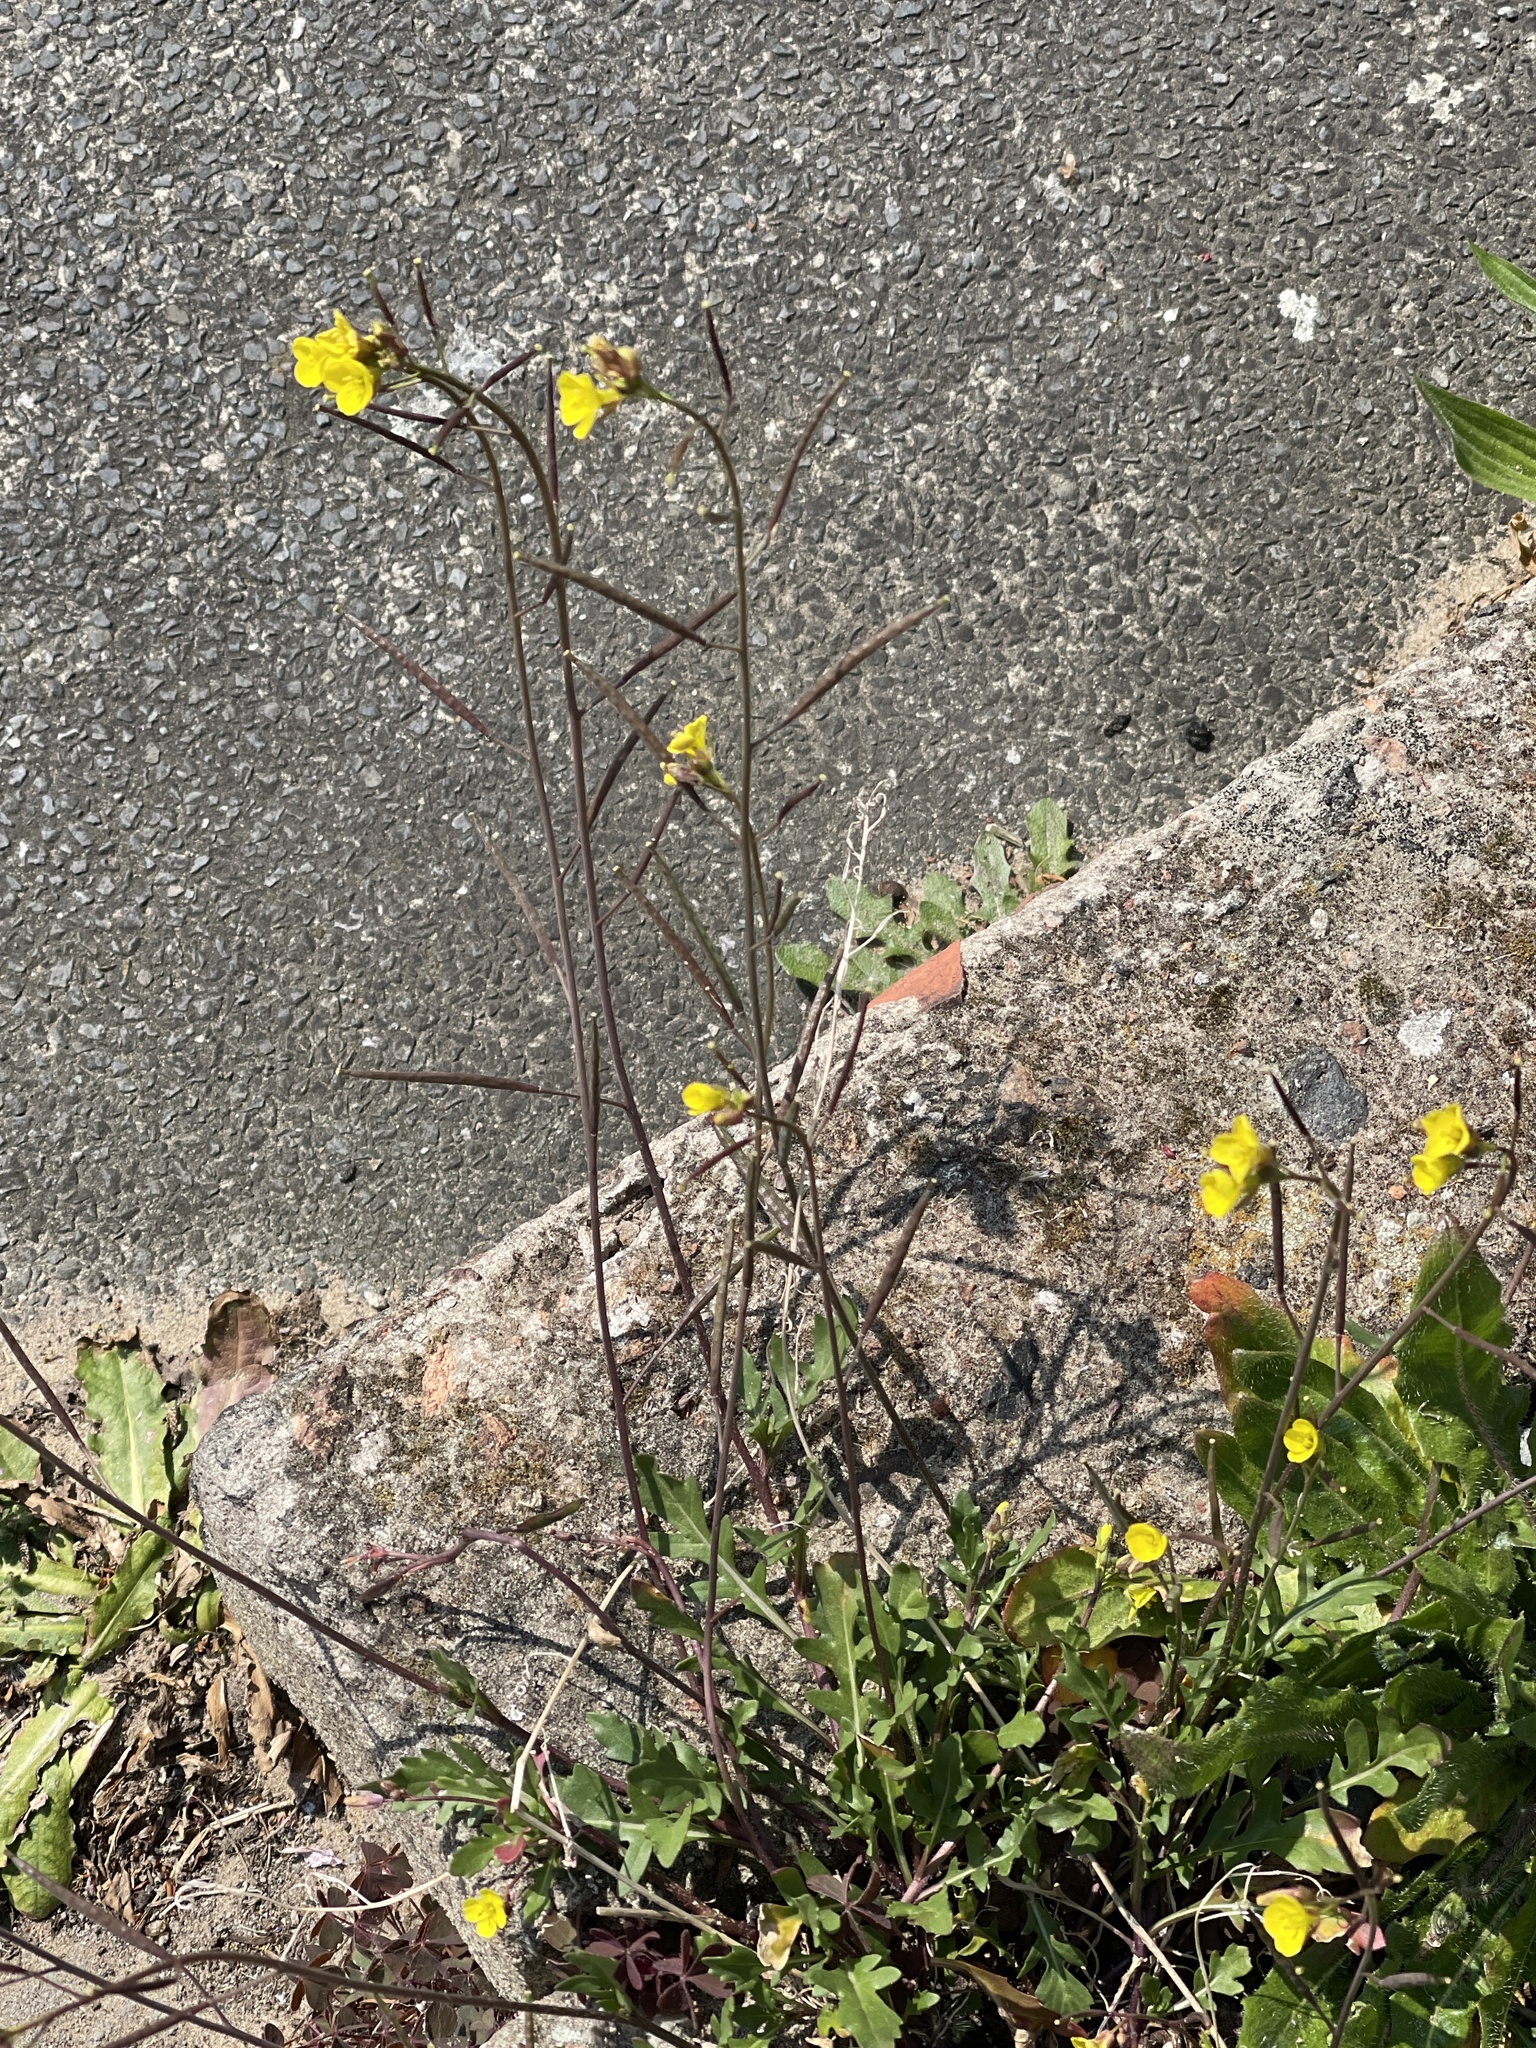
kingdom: Plantae
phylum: Tracheophyta
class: Magnoliopsida
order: Brassicales
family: Brassicaceae
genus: Diplotaxis
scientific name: Diplotaxis muralis
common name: Annual wall-rocket
